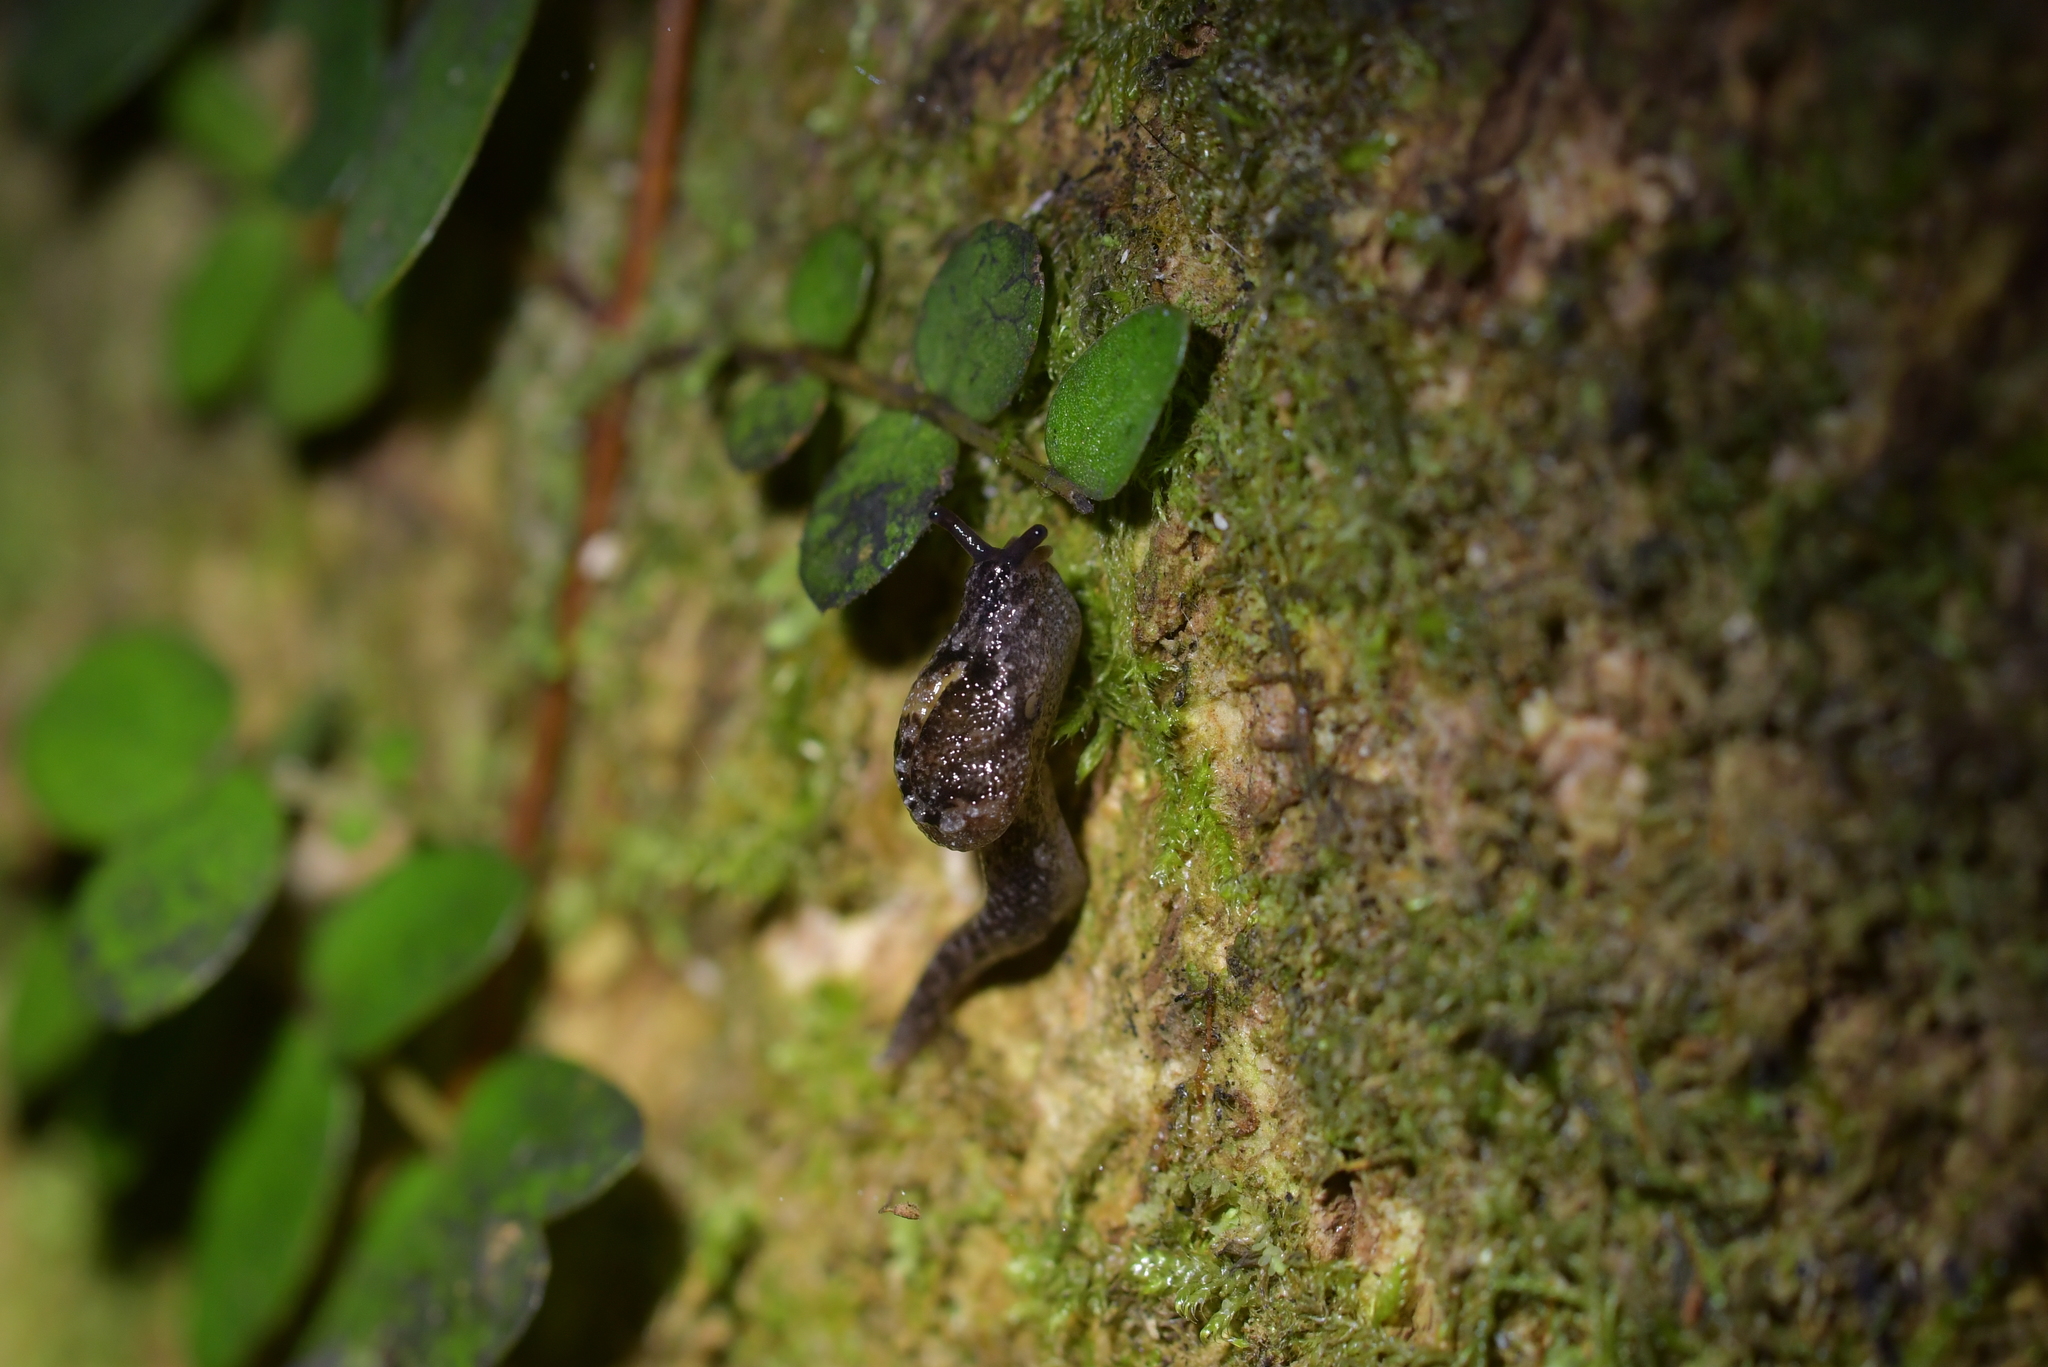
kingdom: Animalia
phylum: Mollusca
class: Gastropoda
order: Stylommatophora
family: Charopidae
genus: Otoconcha
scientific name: Otoconcha dimidiata
